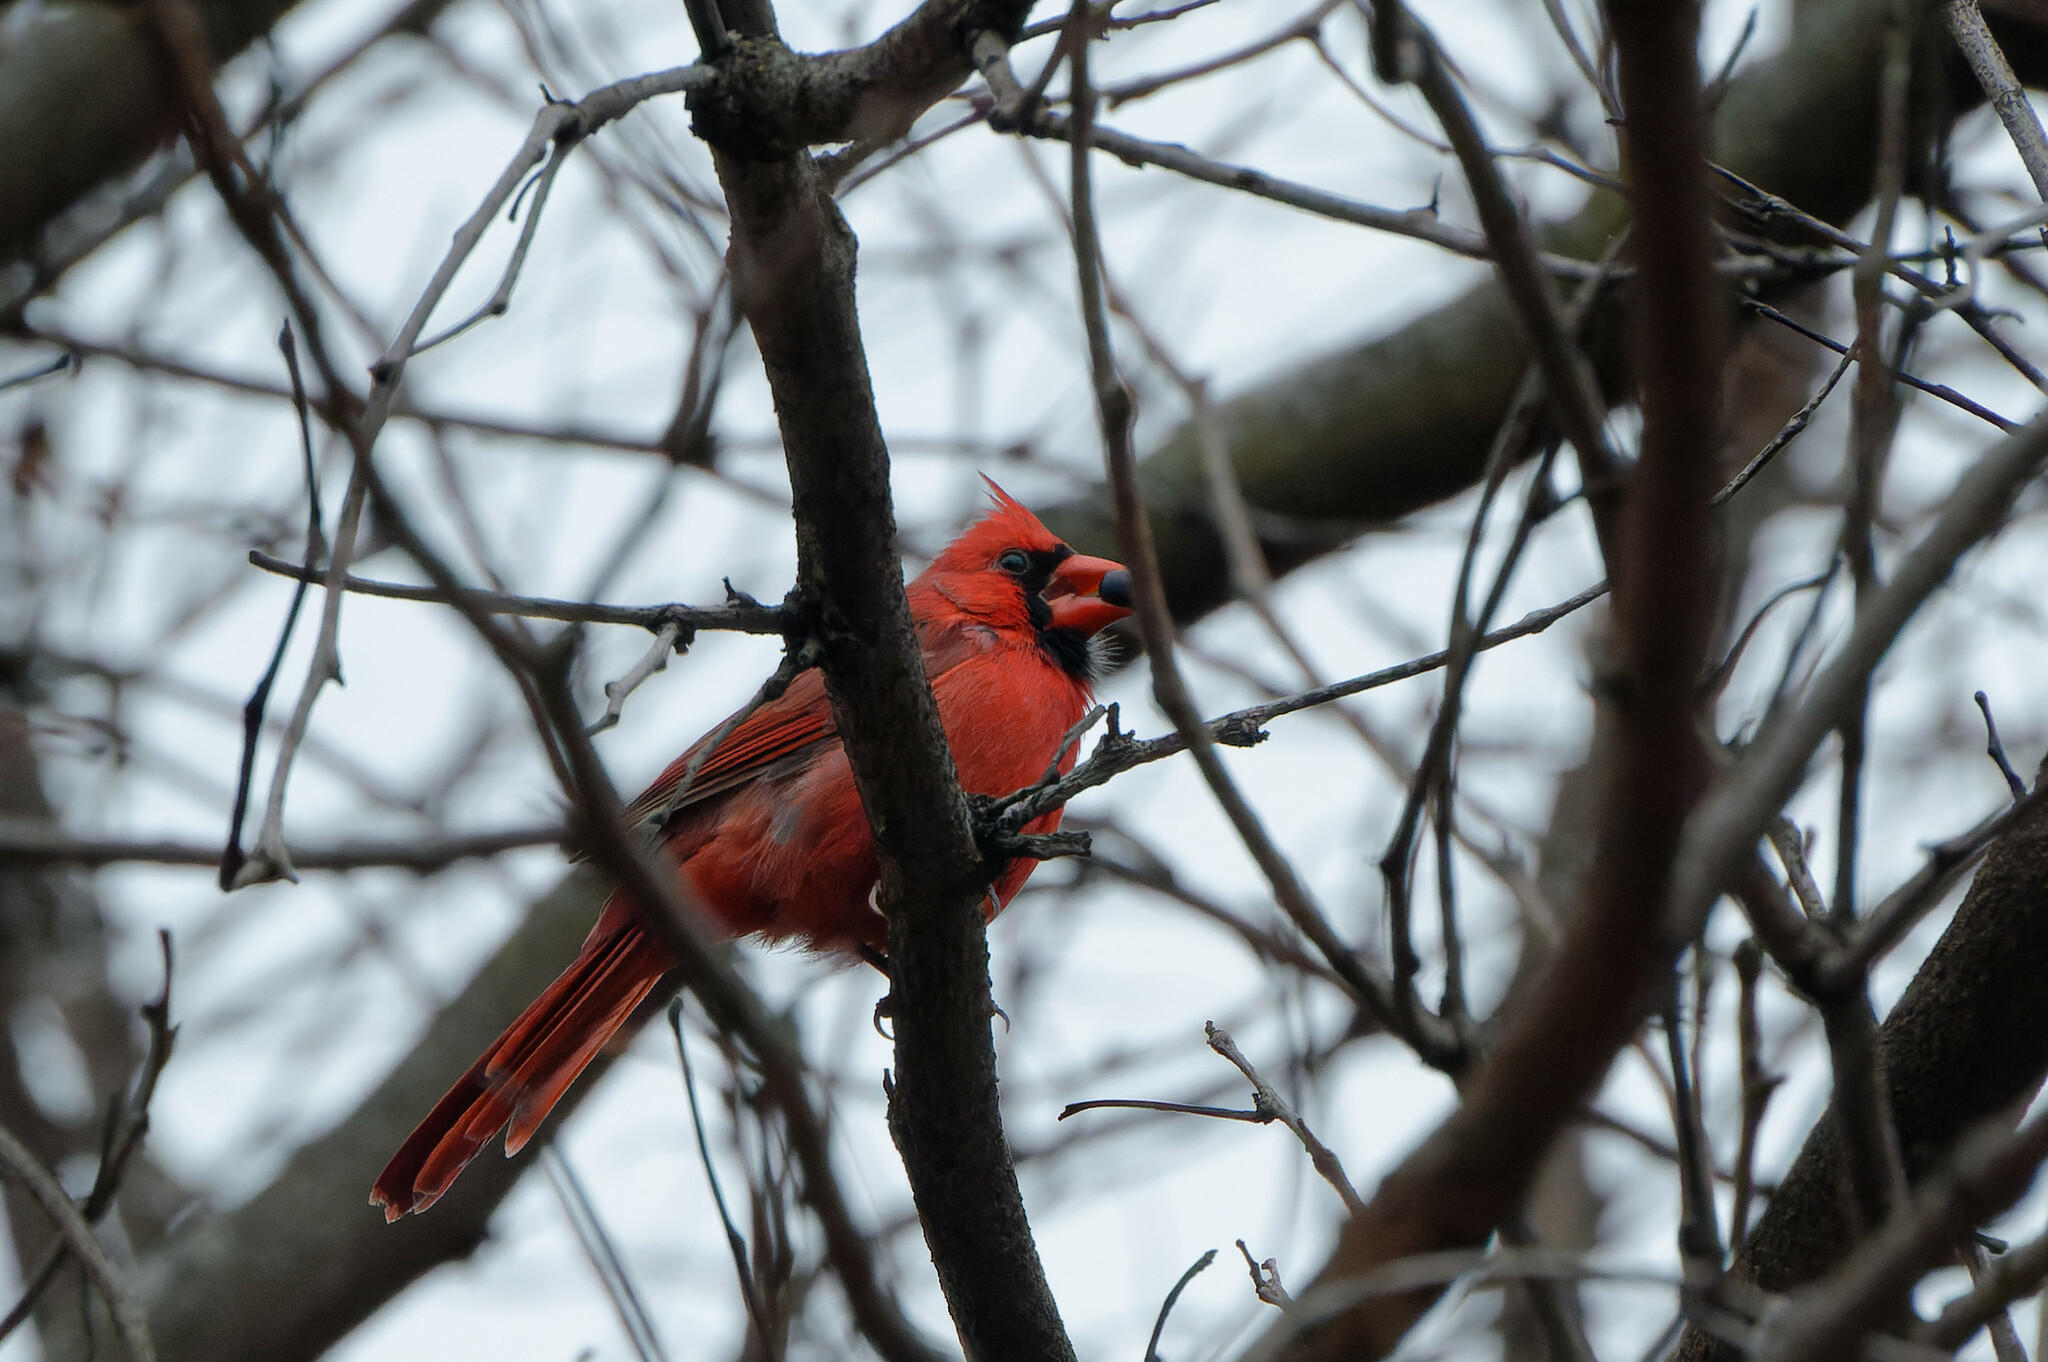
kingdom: Animalia
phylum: Chordata
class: Aves
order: Passeriformes
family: Cardinalidae
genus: Cardinalis
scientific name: Cardinalis cardinalis
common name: Northern cardinal
